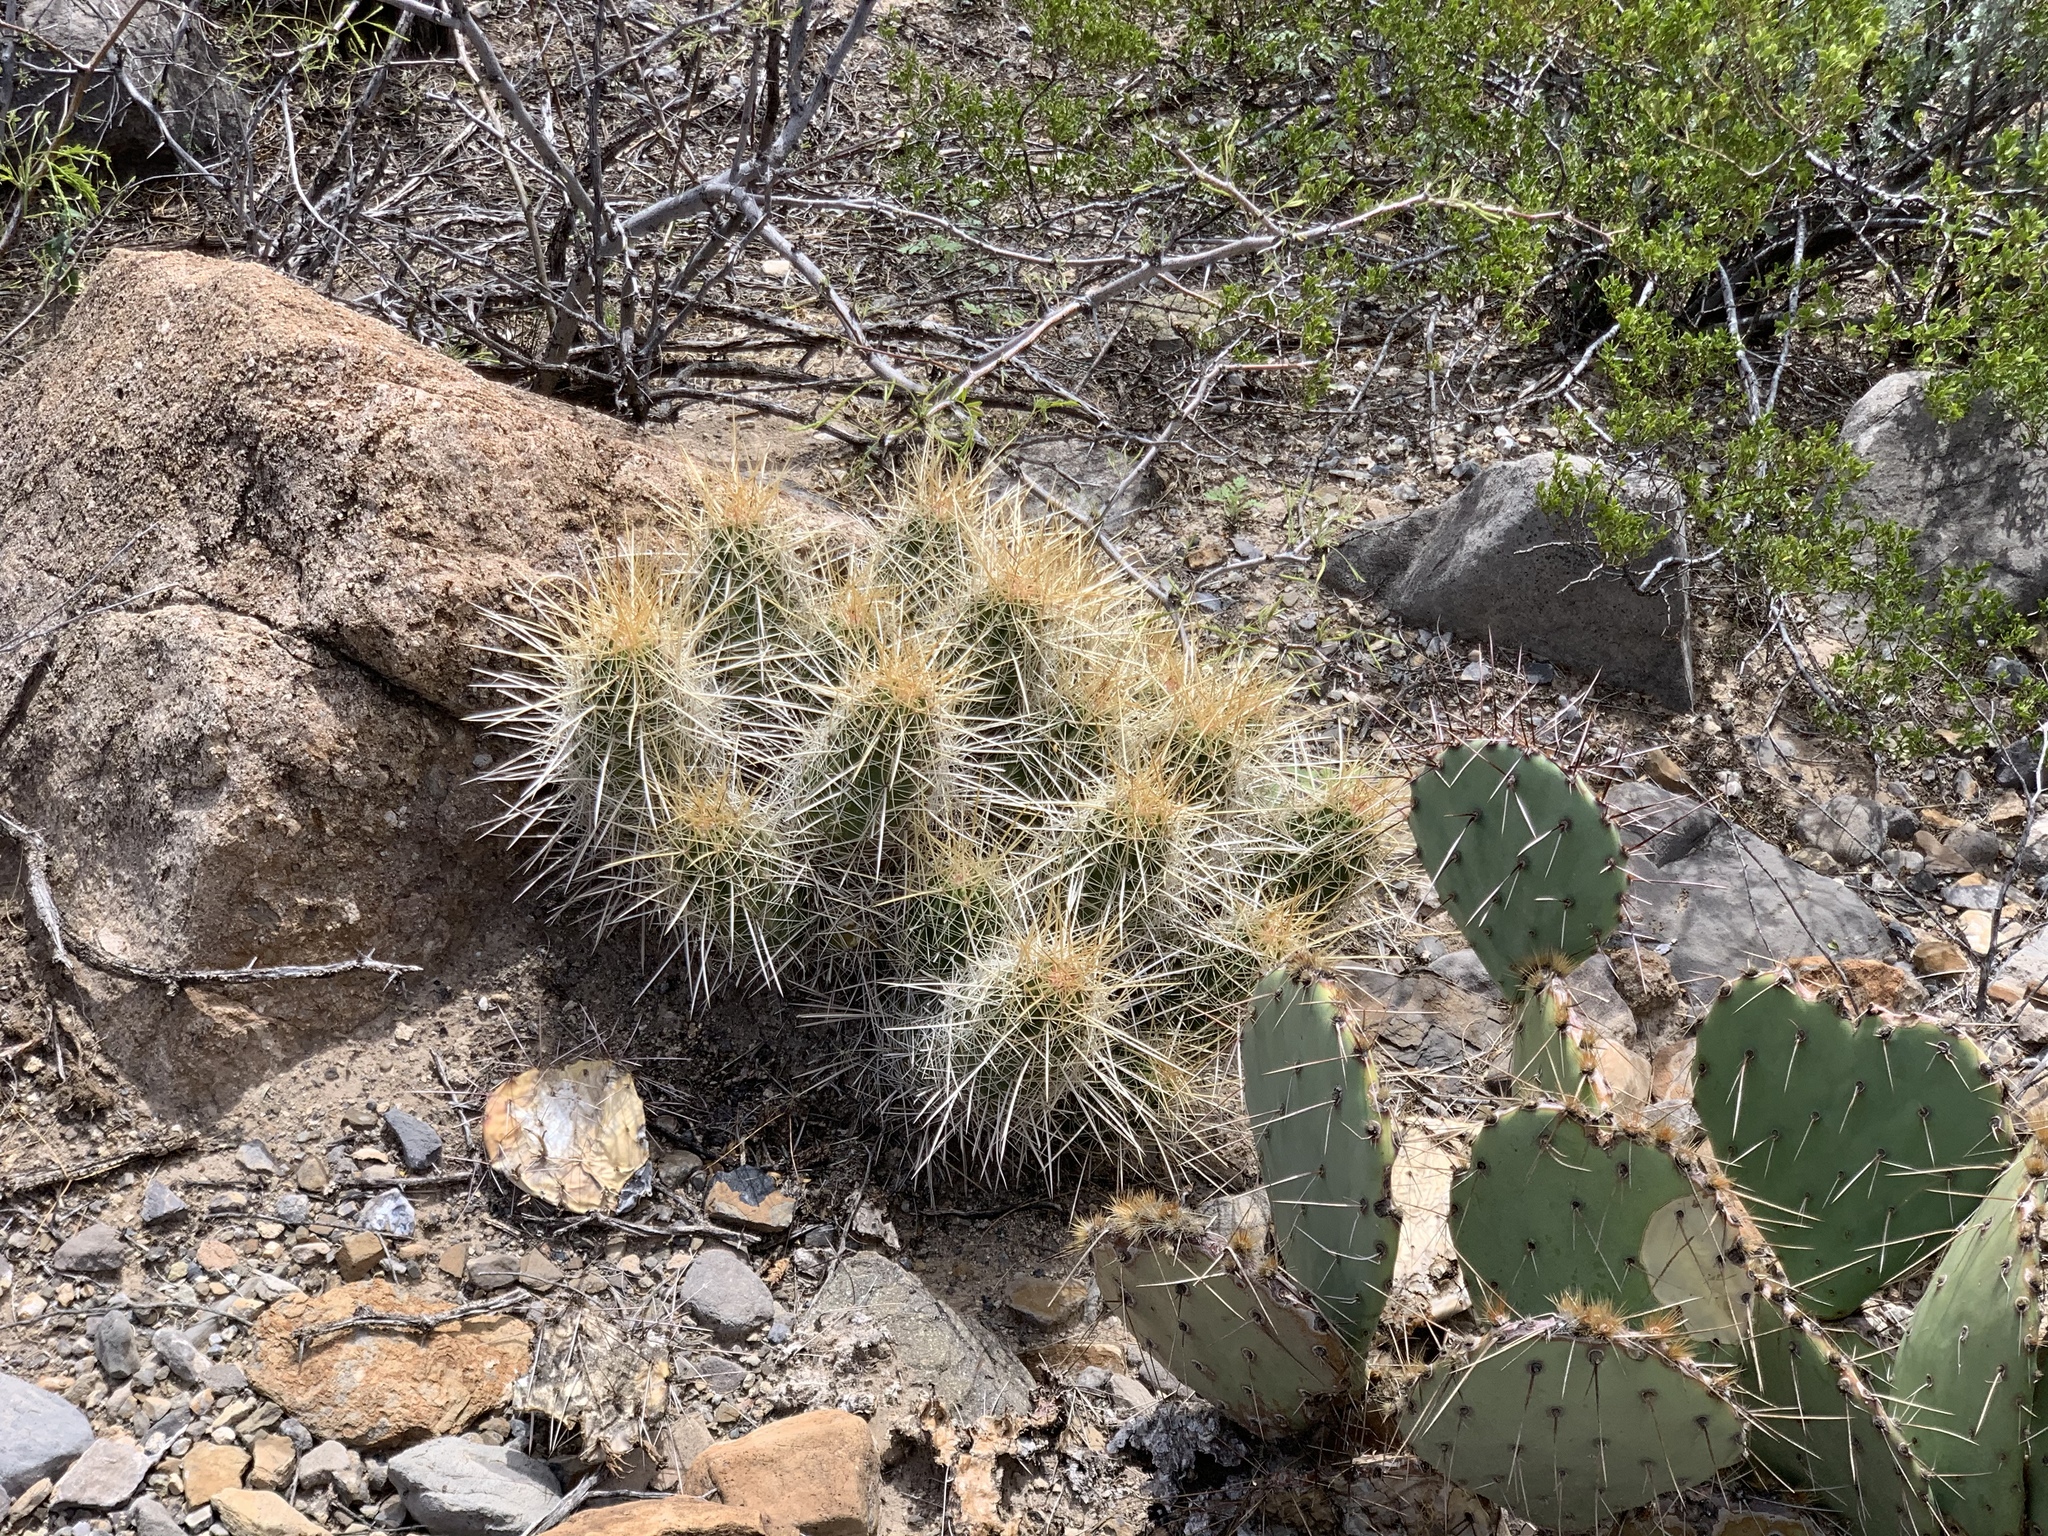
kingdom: Plantae
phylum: Tracheophyta
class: Magnoliopsida
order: Caryophyllales
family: Cactaceae
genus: Echinocereus
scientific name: Echinocereus stramineus
